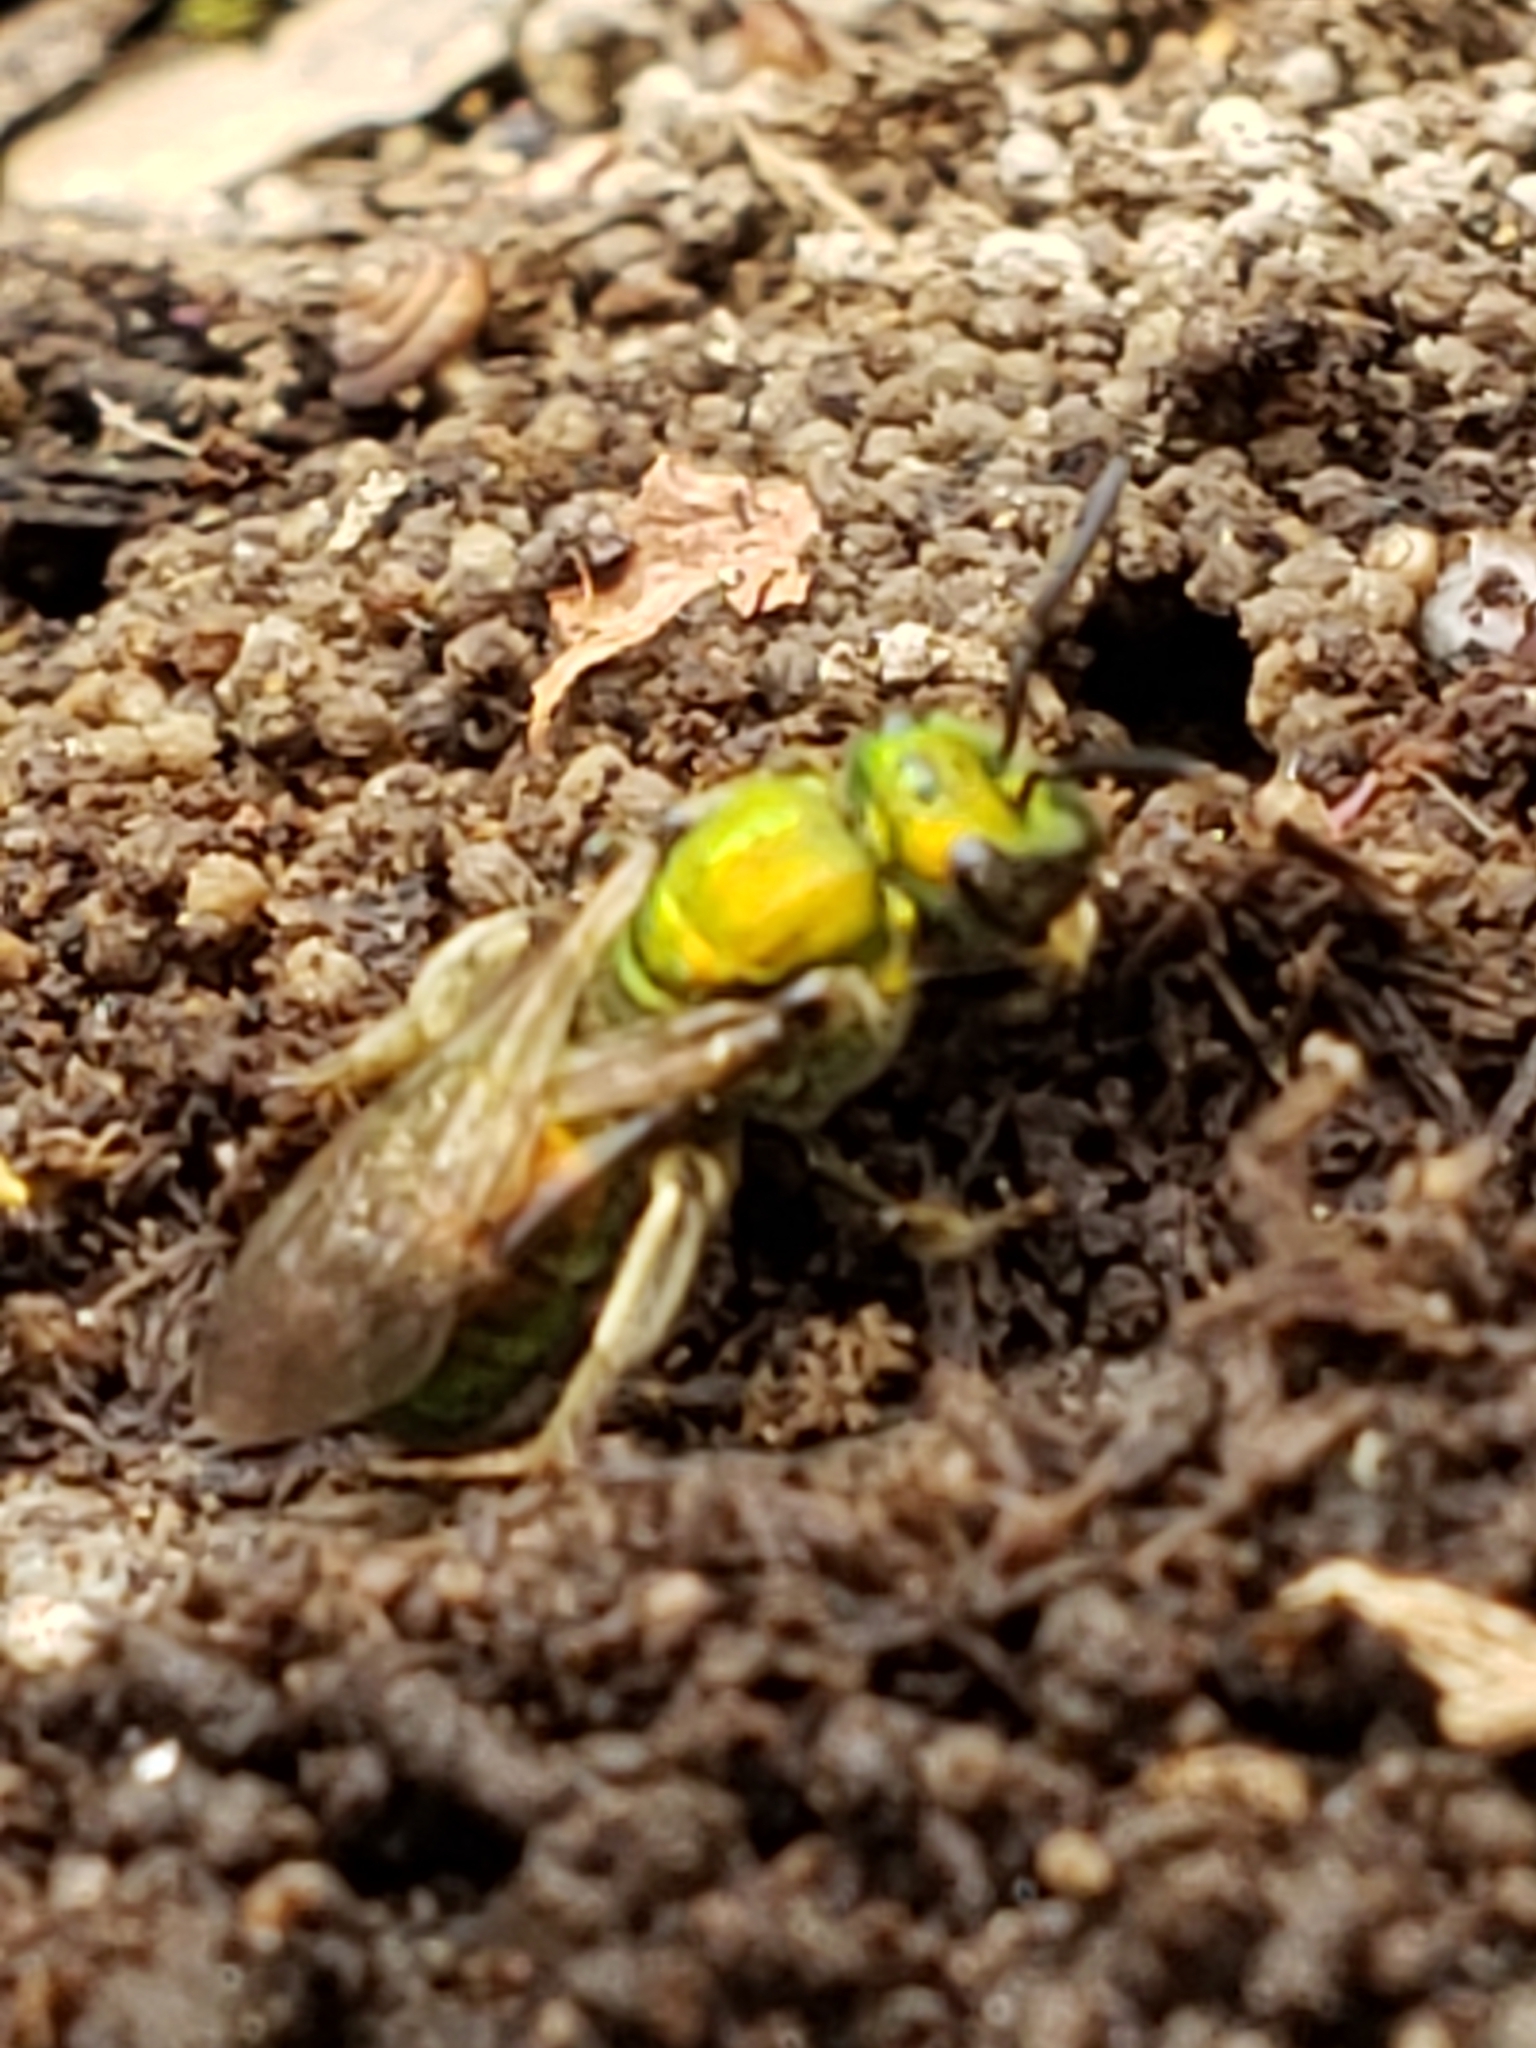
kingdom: Animalia
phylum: Arthropoda
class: Insecta
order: Hymenoptera
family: Halictidae
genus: Augochlora
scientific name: Augochlora pura
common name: Pure green sweat bee
